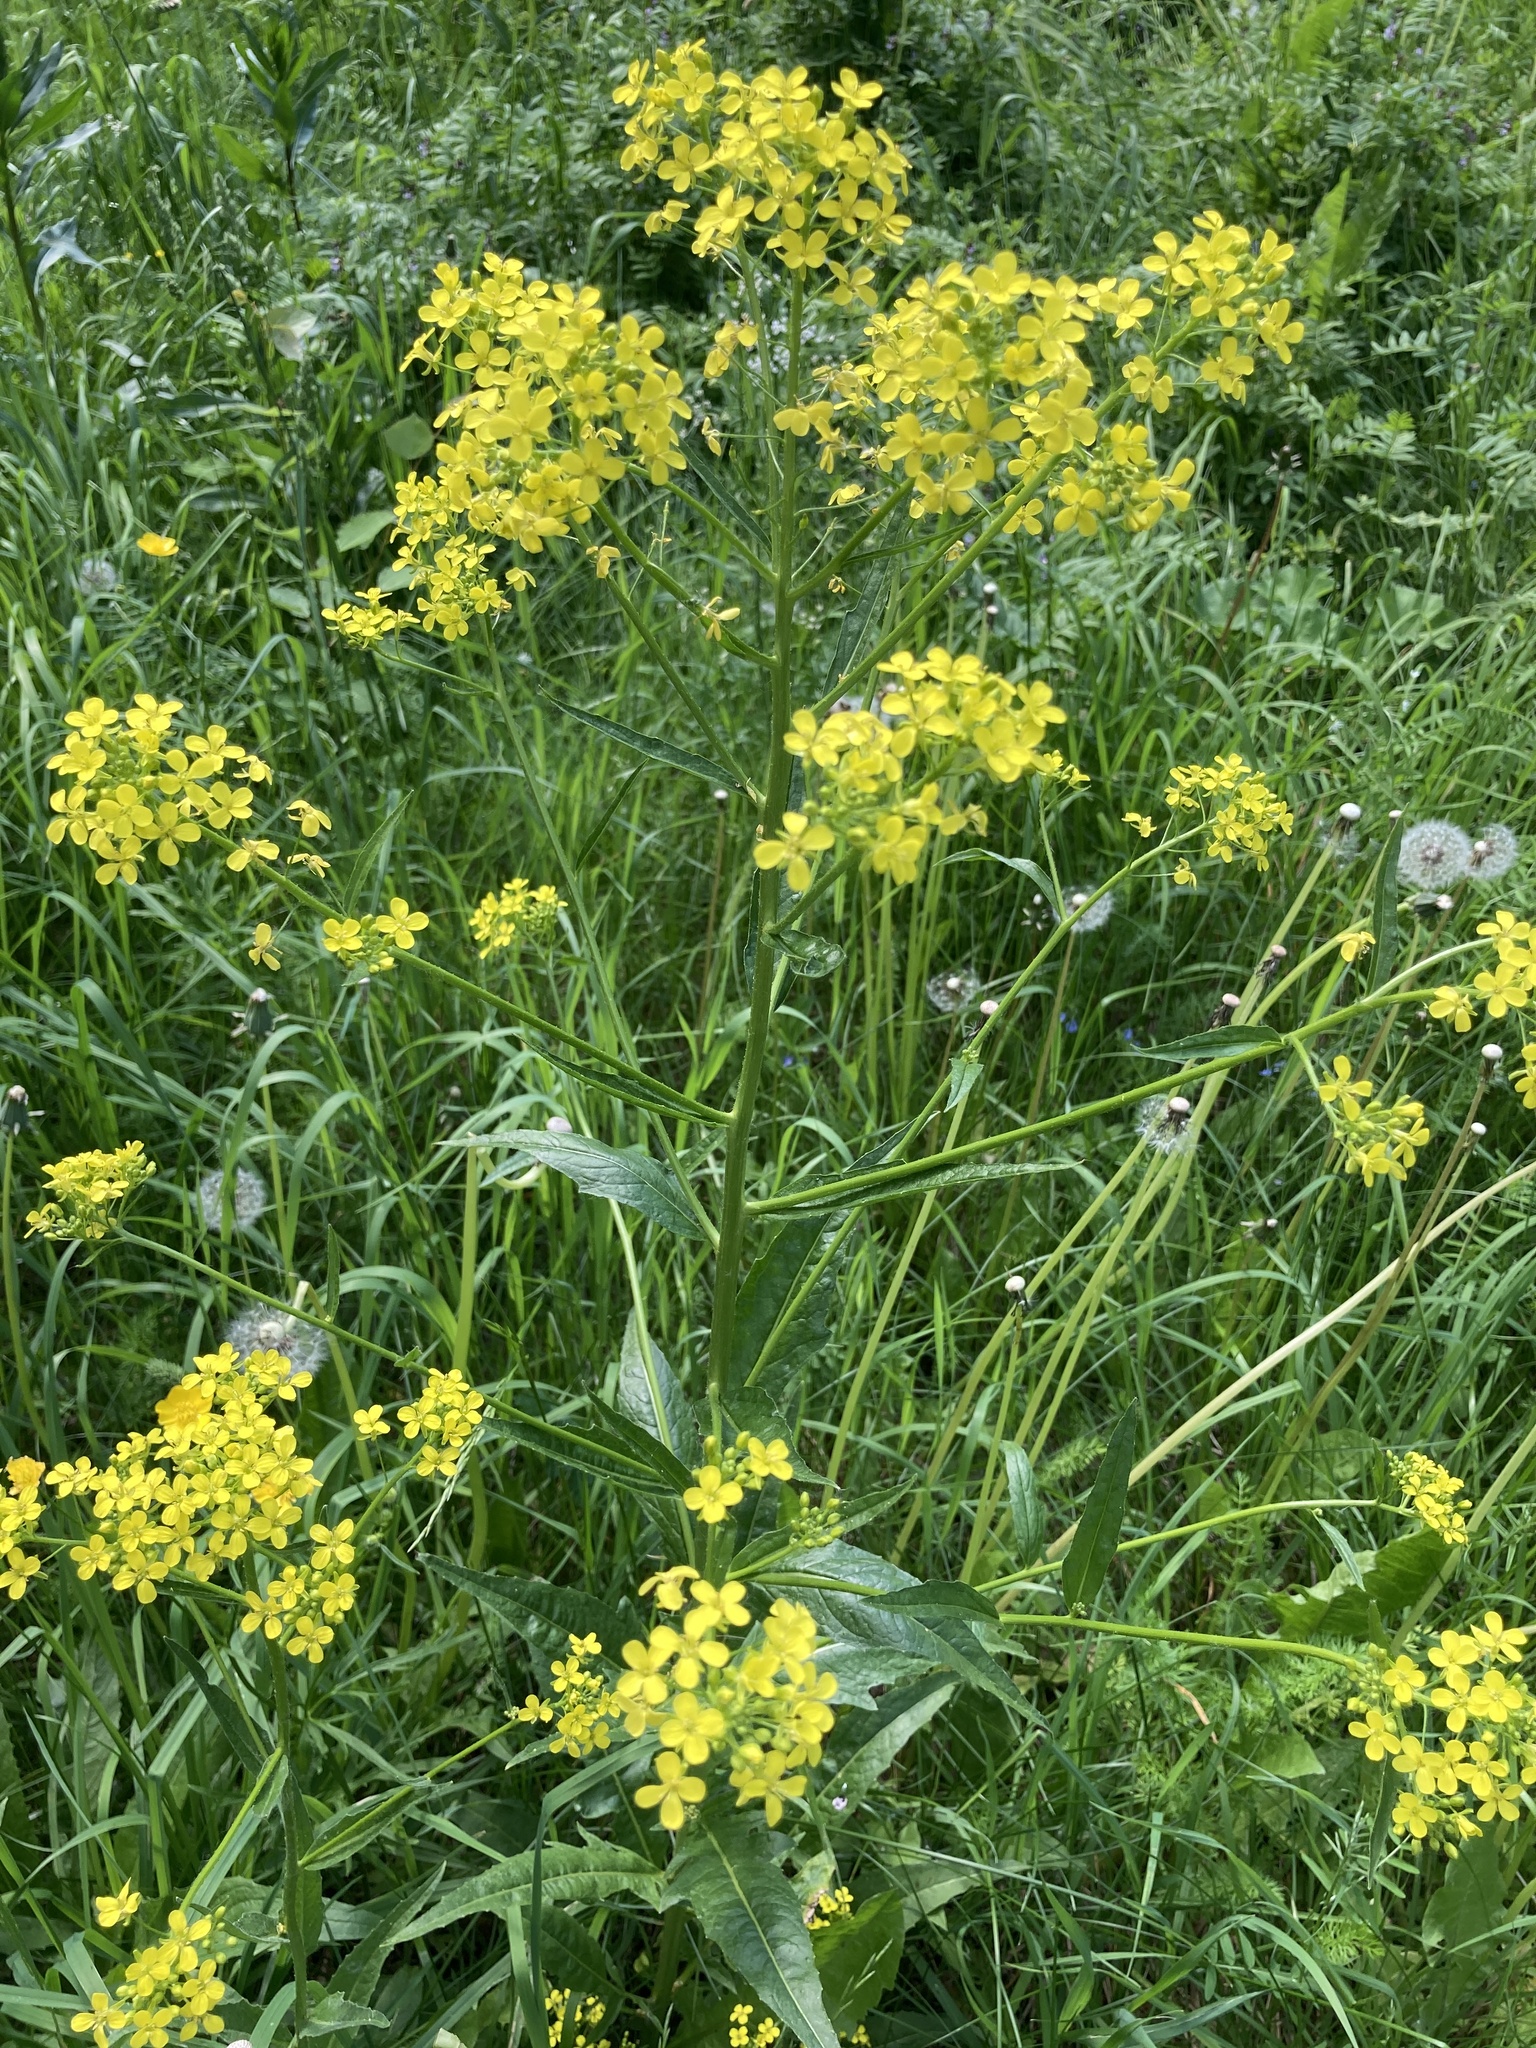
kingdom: Plantae
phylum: Tracheophyta
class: Magnoliopsida
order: Brassicales
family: Brassicaceae
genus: Bunias
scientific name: Bunias orientalis
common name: Warty-cabbage
